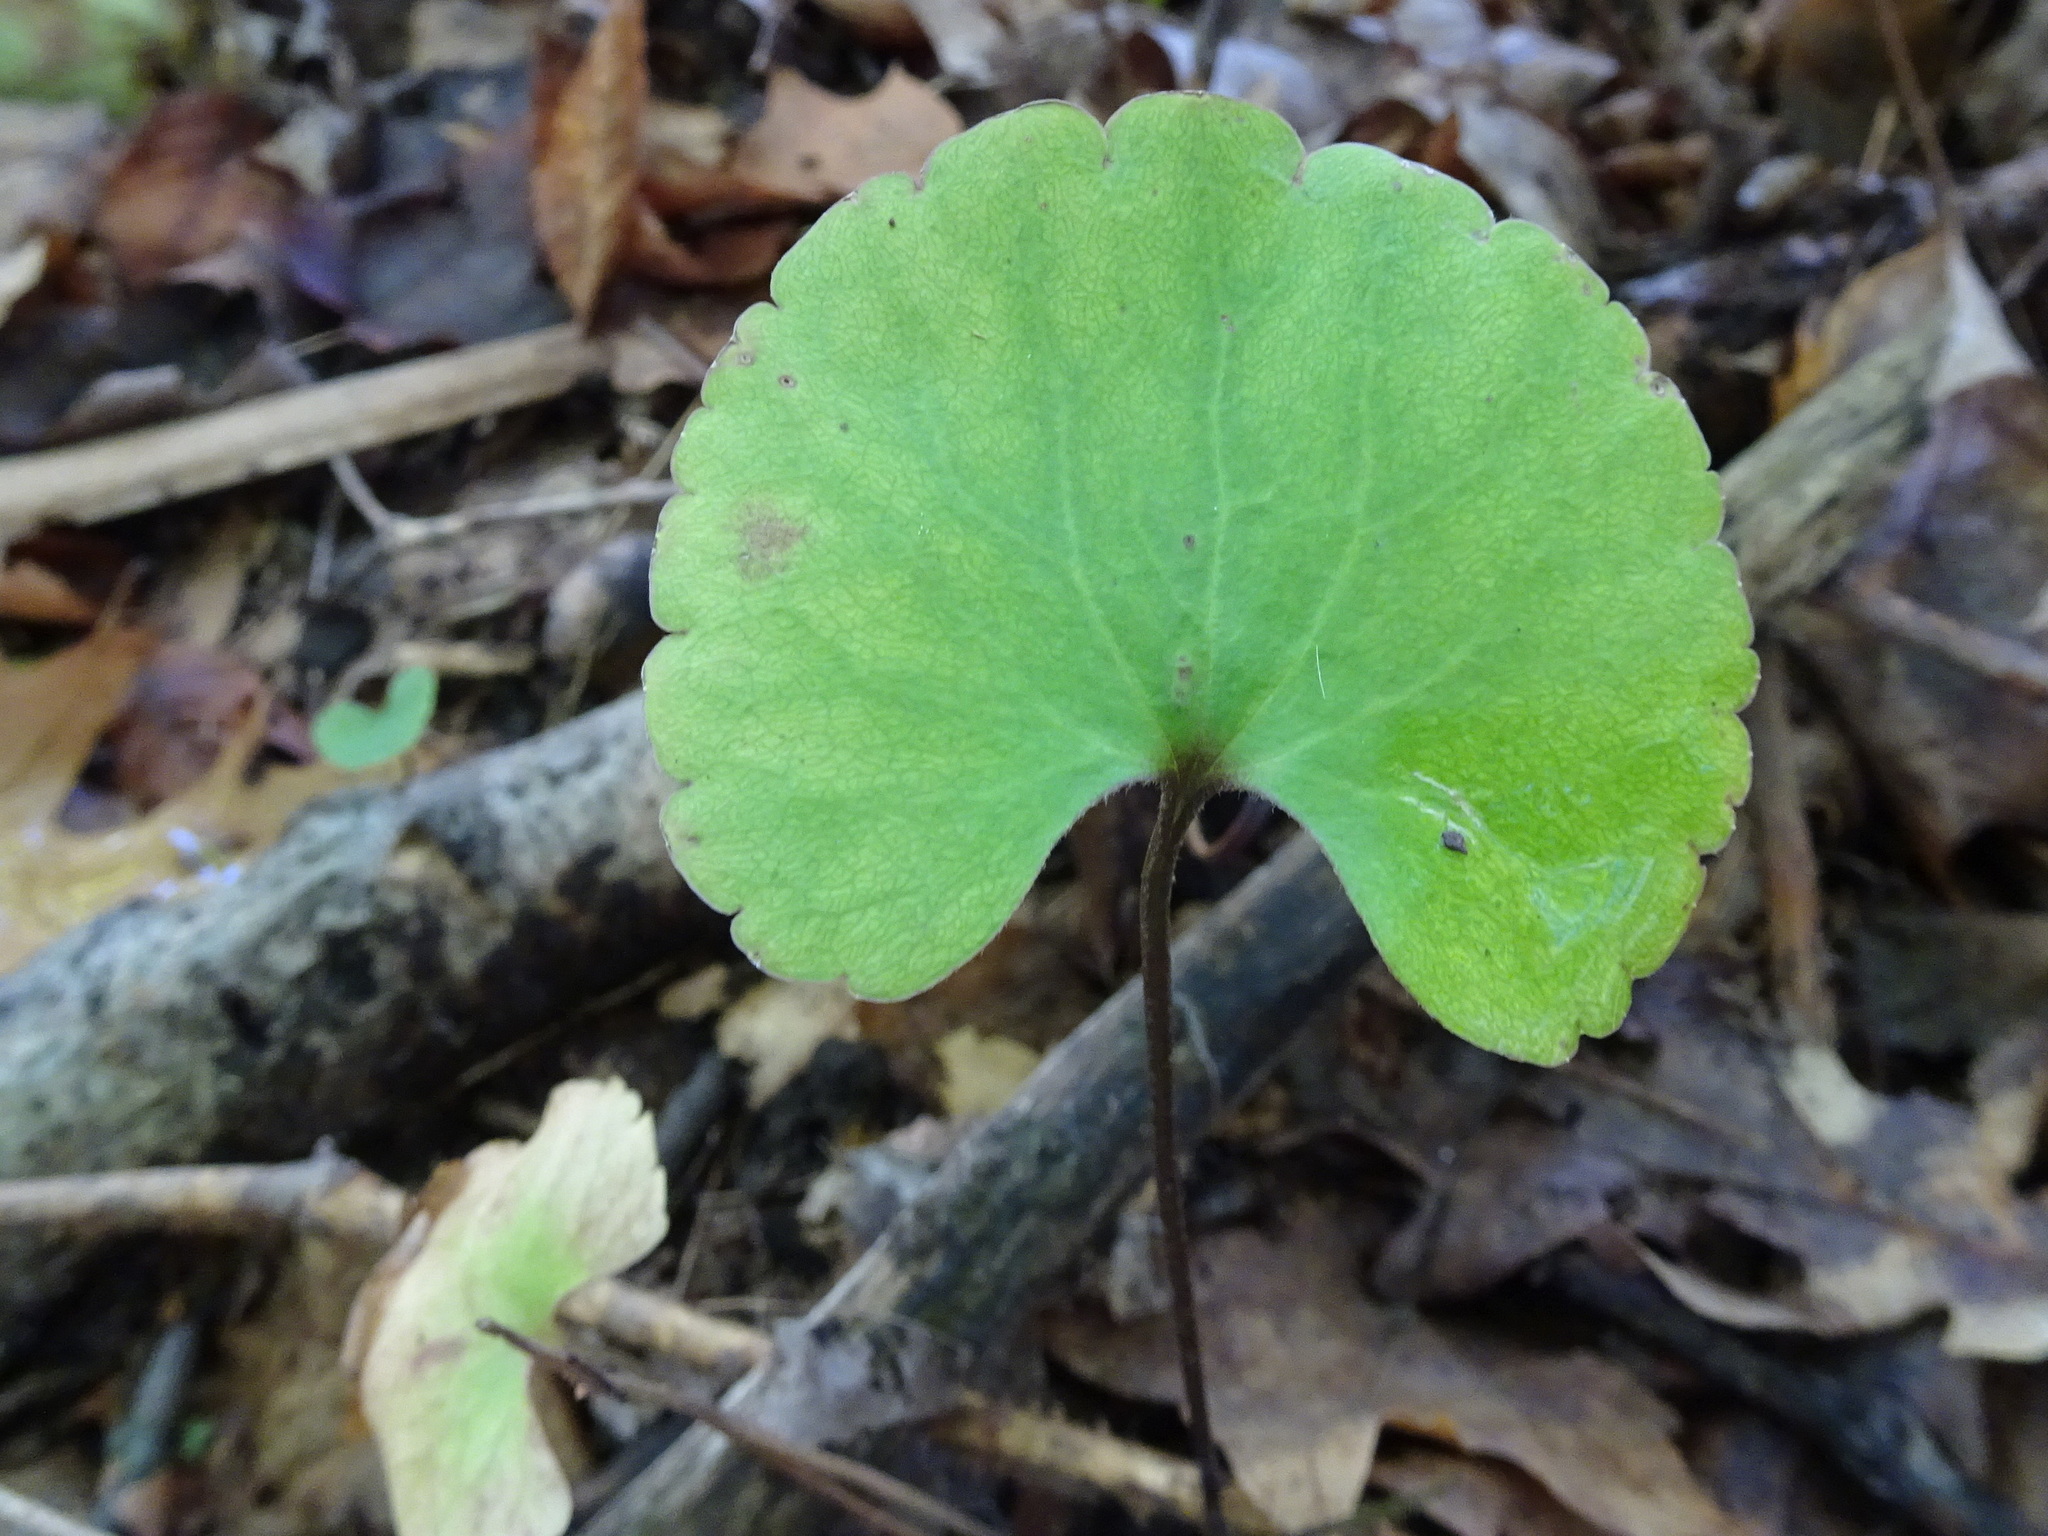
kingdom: Plantae
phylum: Tracheophyta
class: Magnoliopsida
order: Ranunculales
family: Ranunculaceae
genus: Ranunculus
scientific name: Ranunculus abortivus
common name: Early wood buttercup
